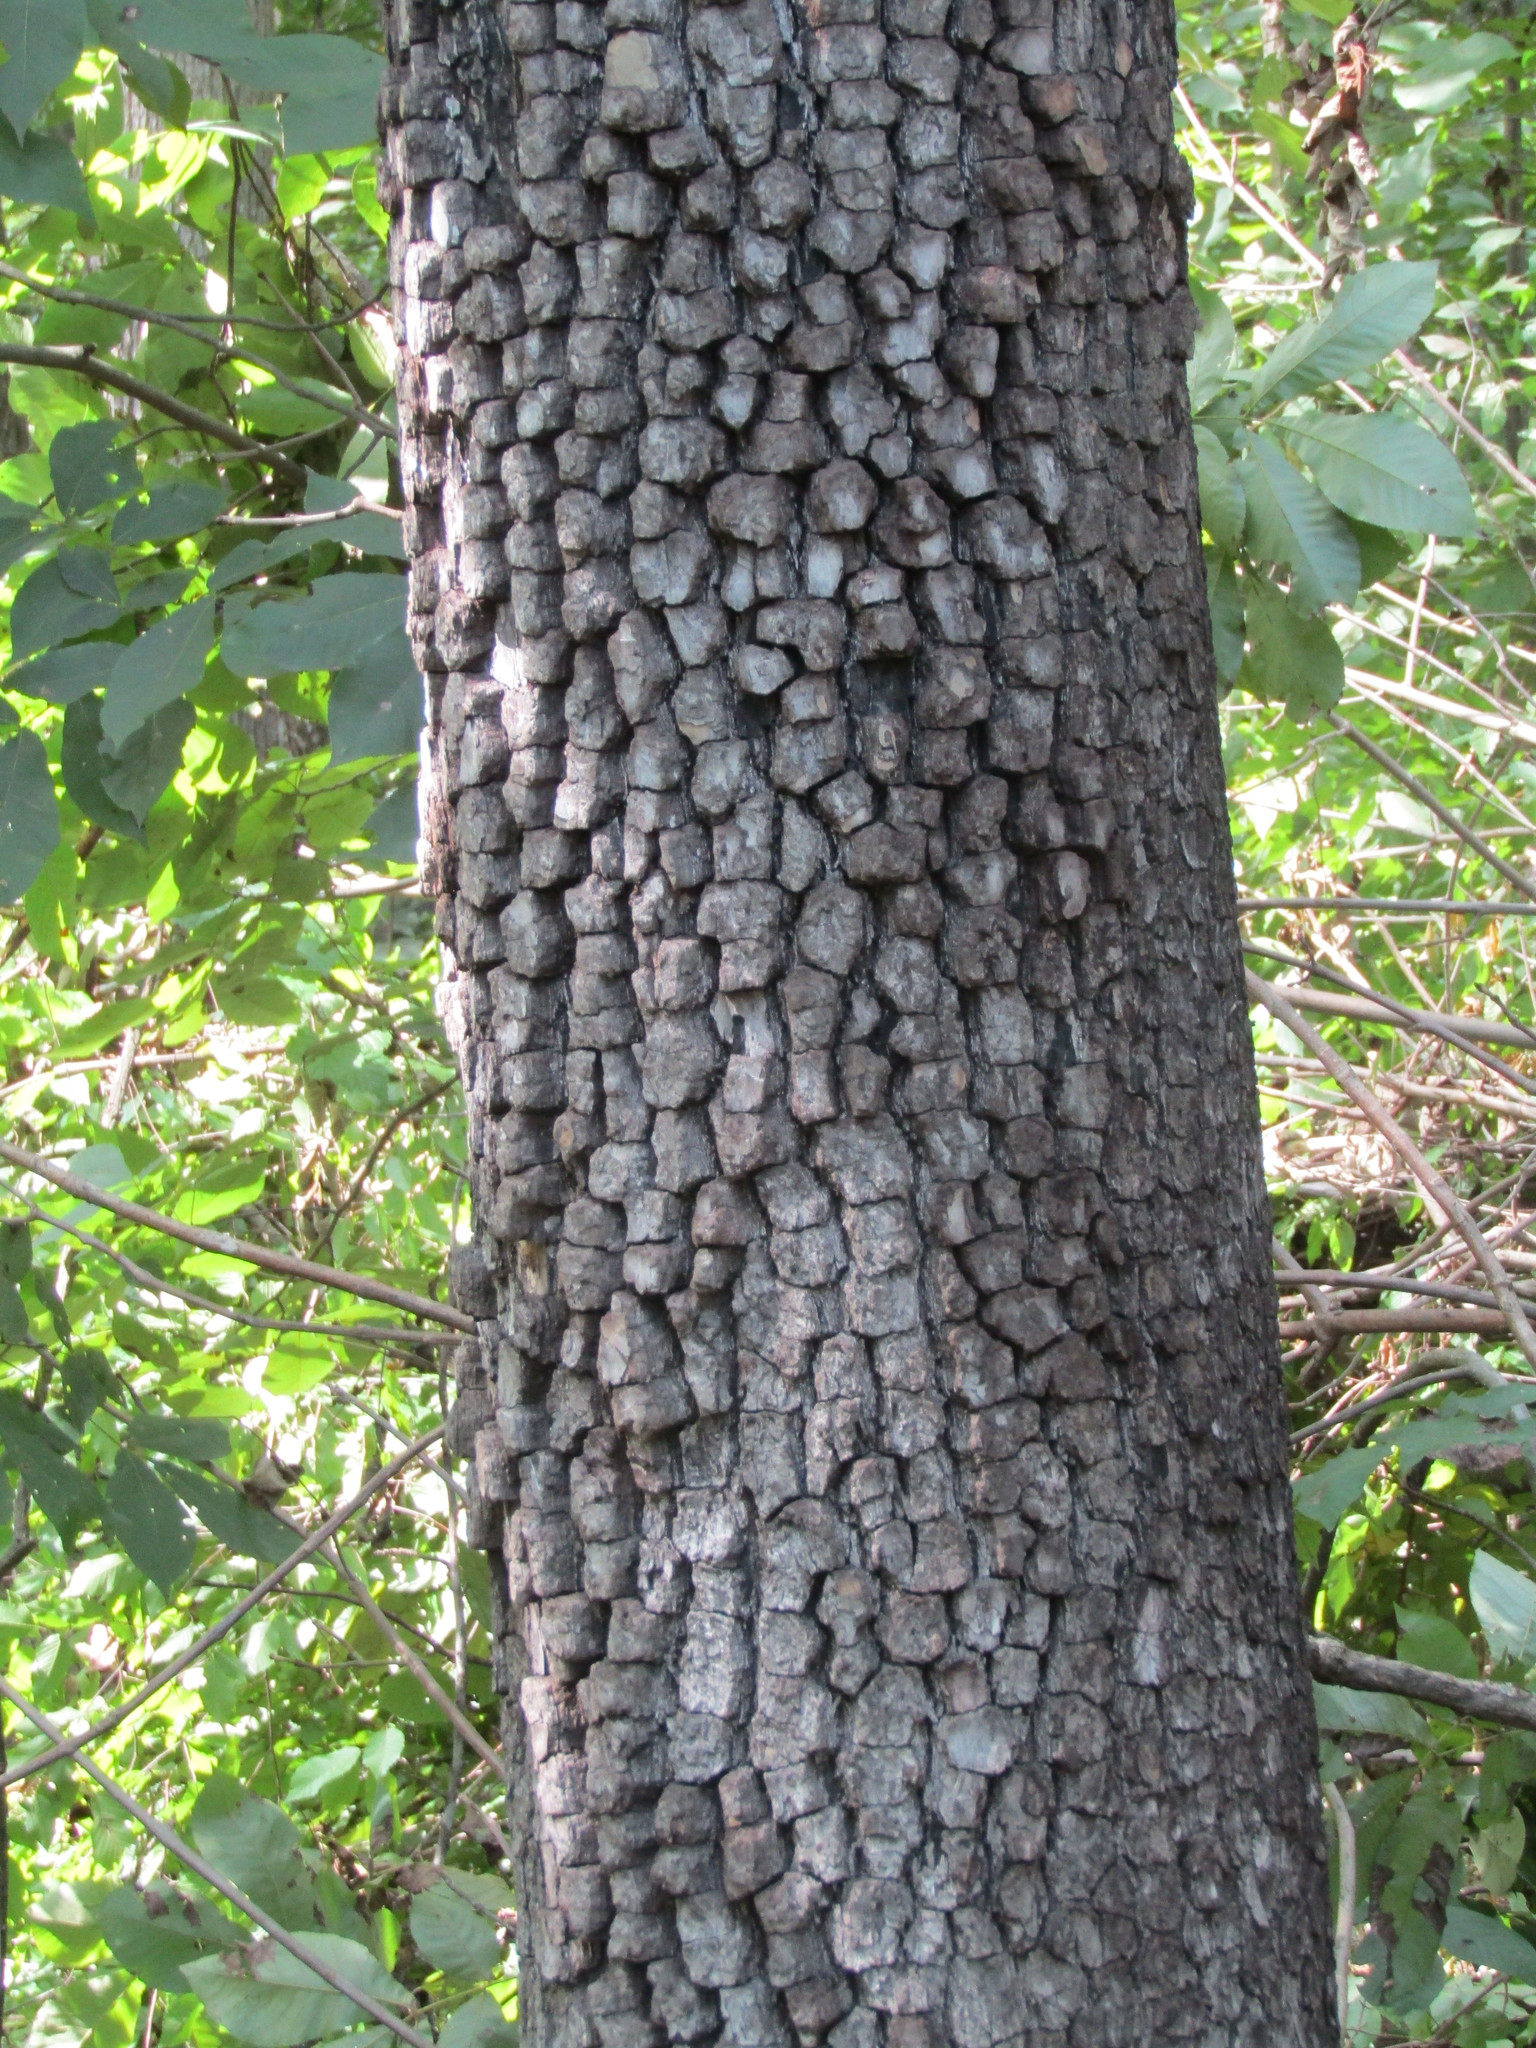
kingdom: Plantae
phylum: Tracheophyta
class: Magnoliopsida
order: Ericales
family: Ebenaceae
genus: Diospyros
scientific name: Diospyros virginiana
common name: Persimmon
